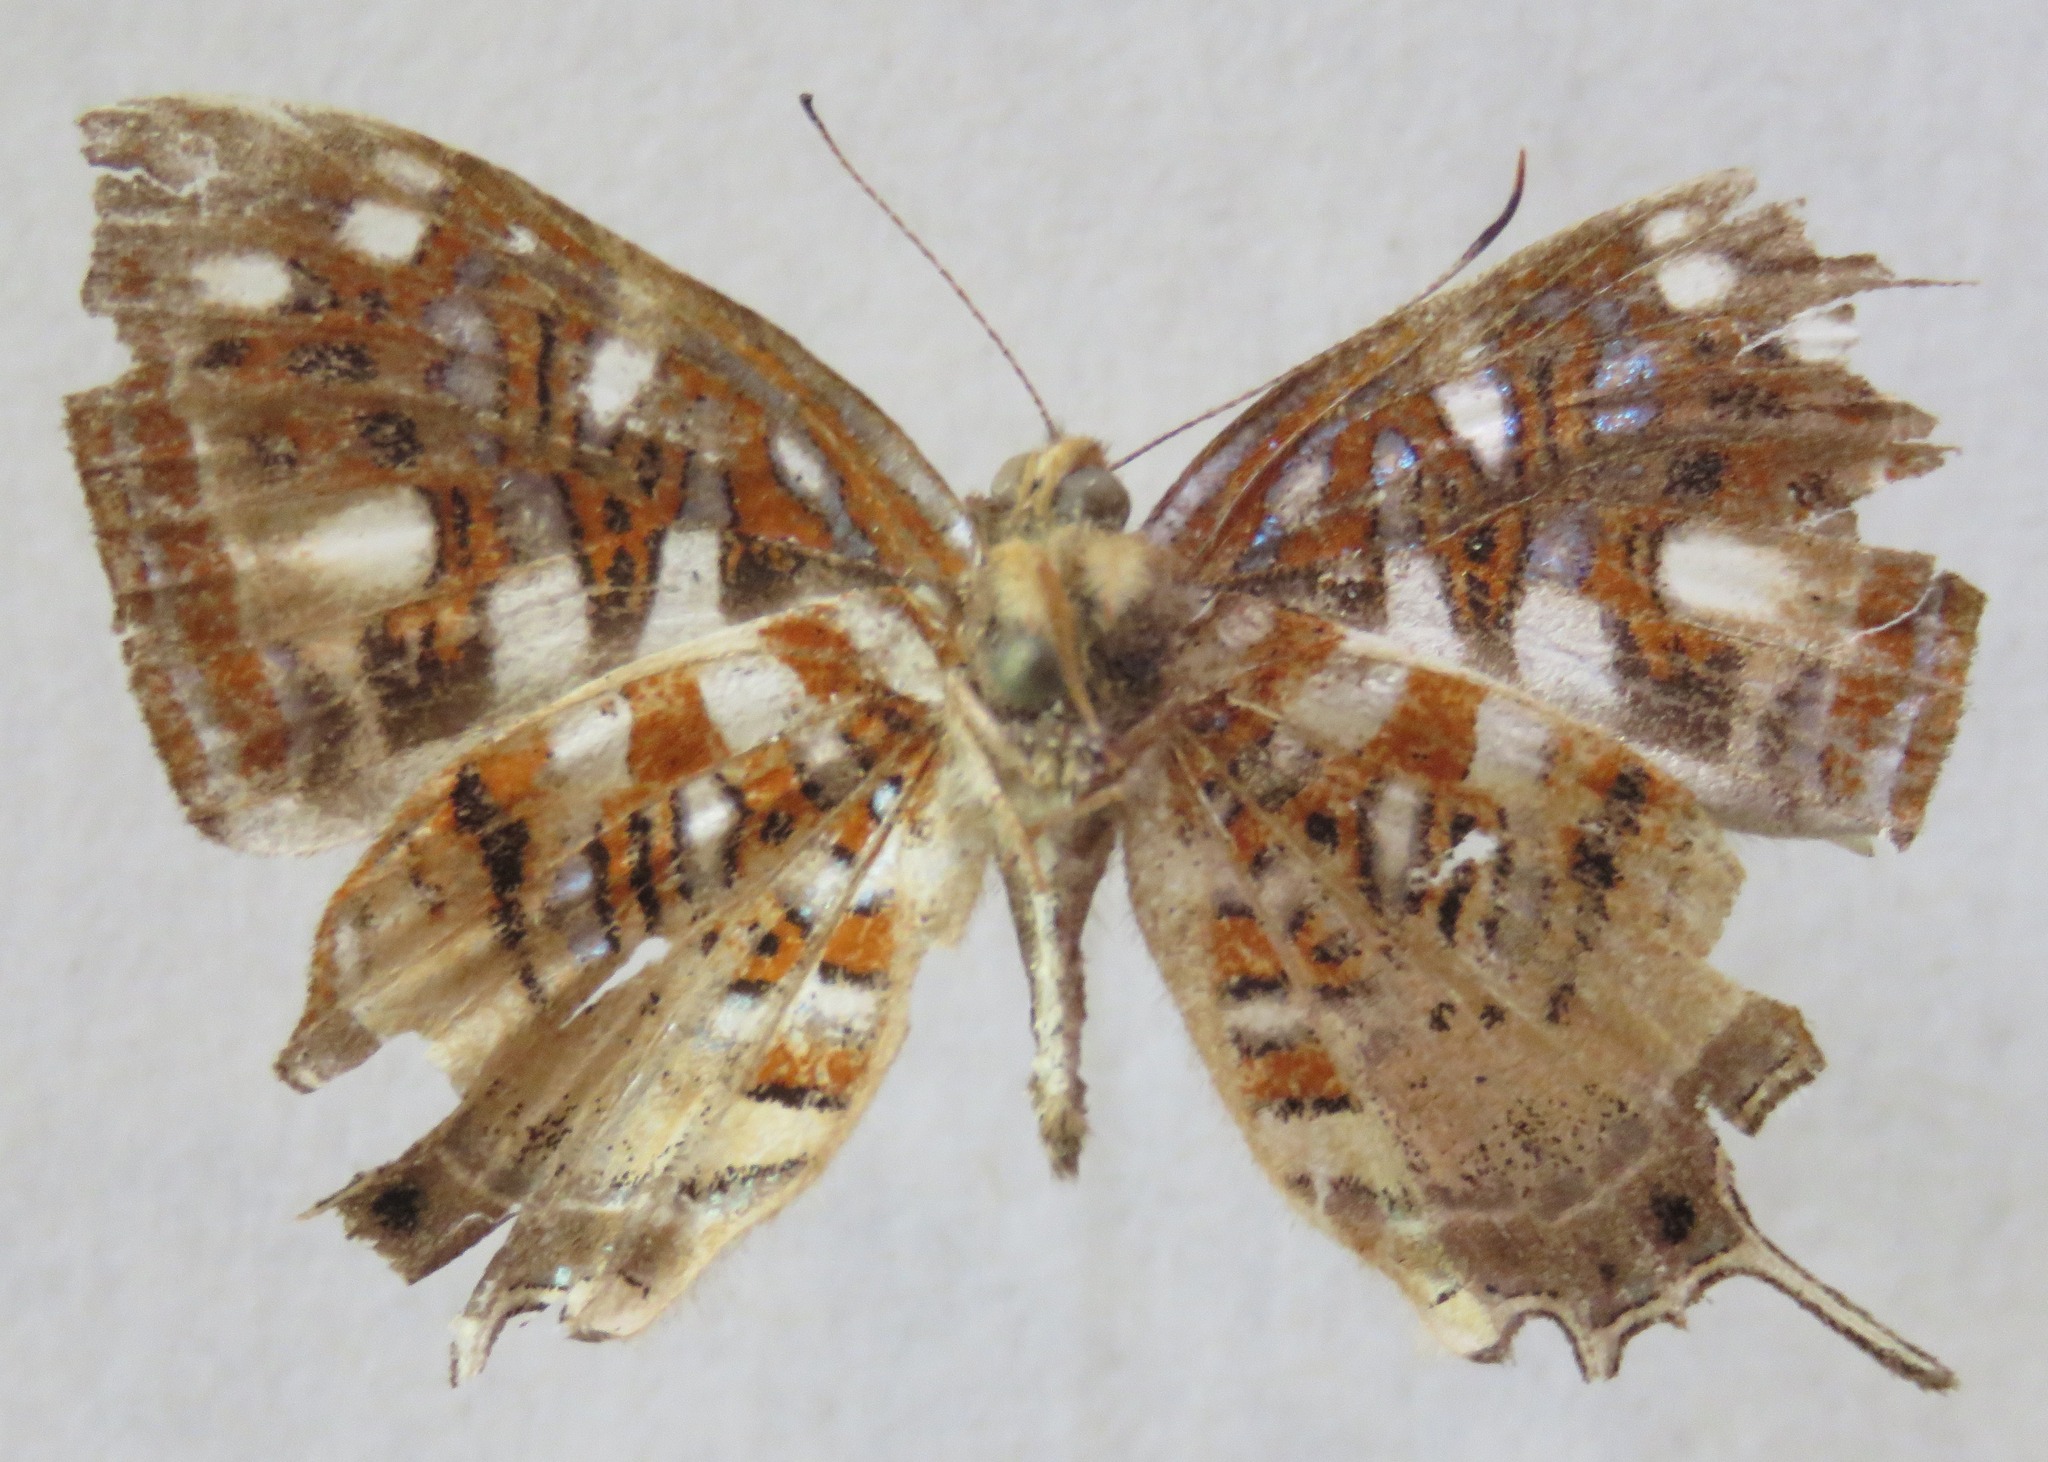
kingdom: Animalia
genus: Charis
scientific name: Charis Sarota chrysus
